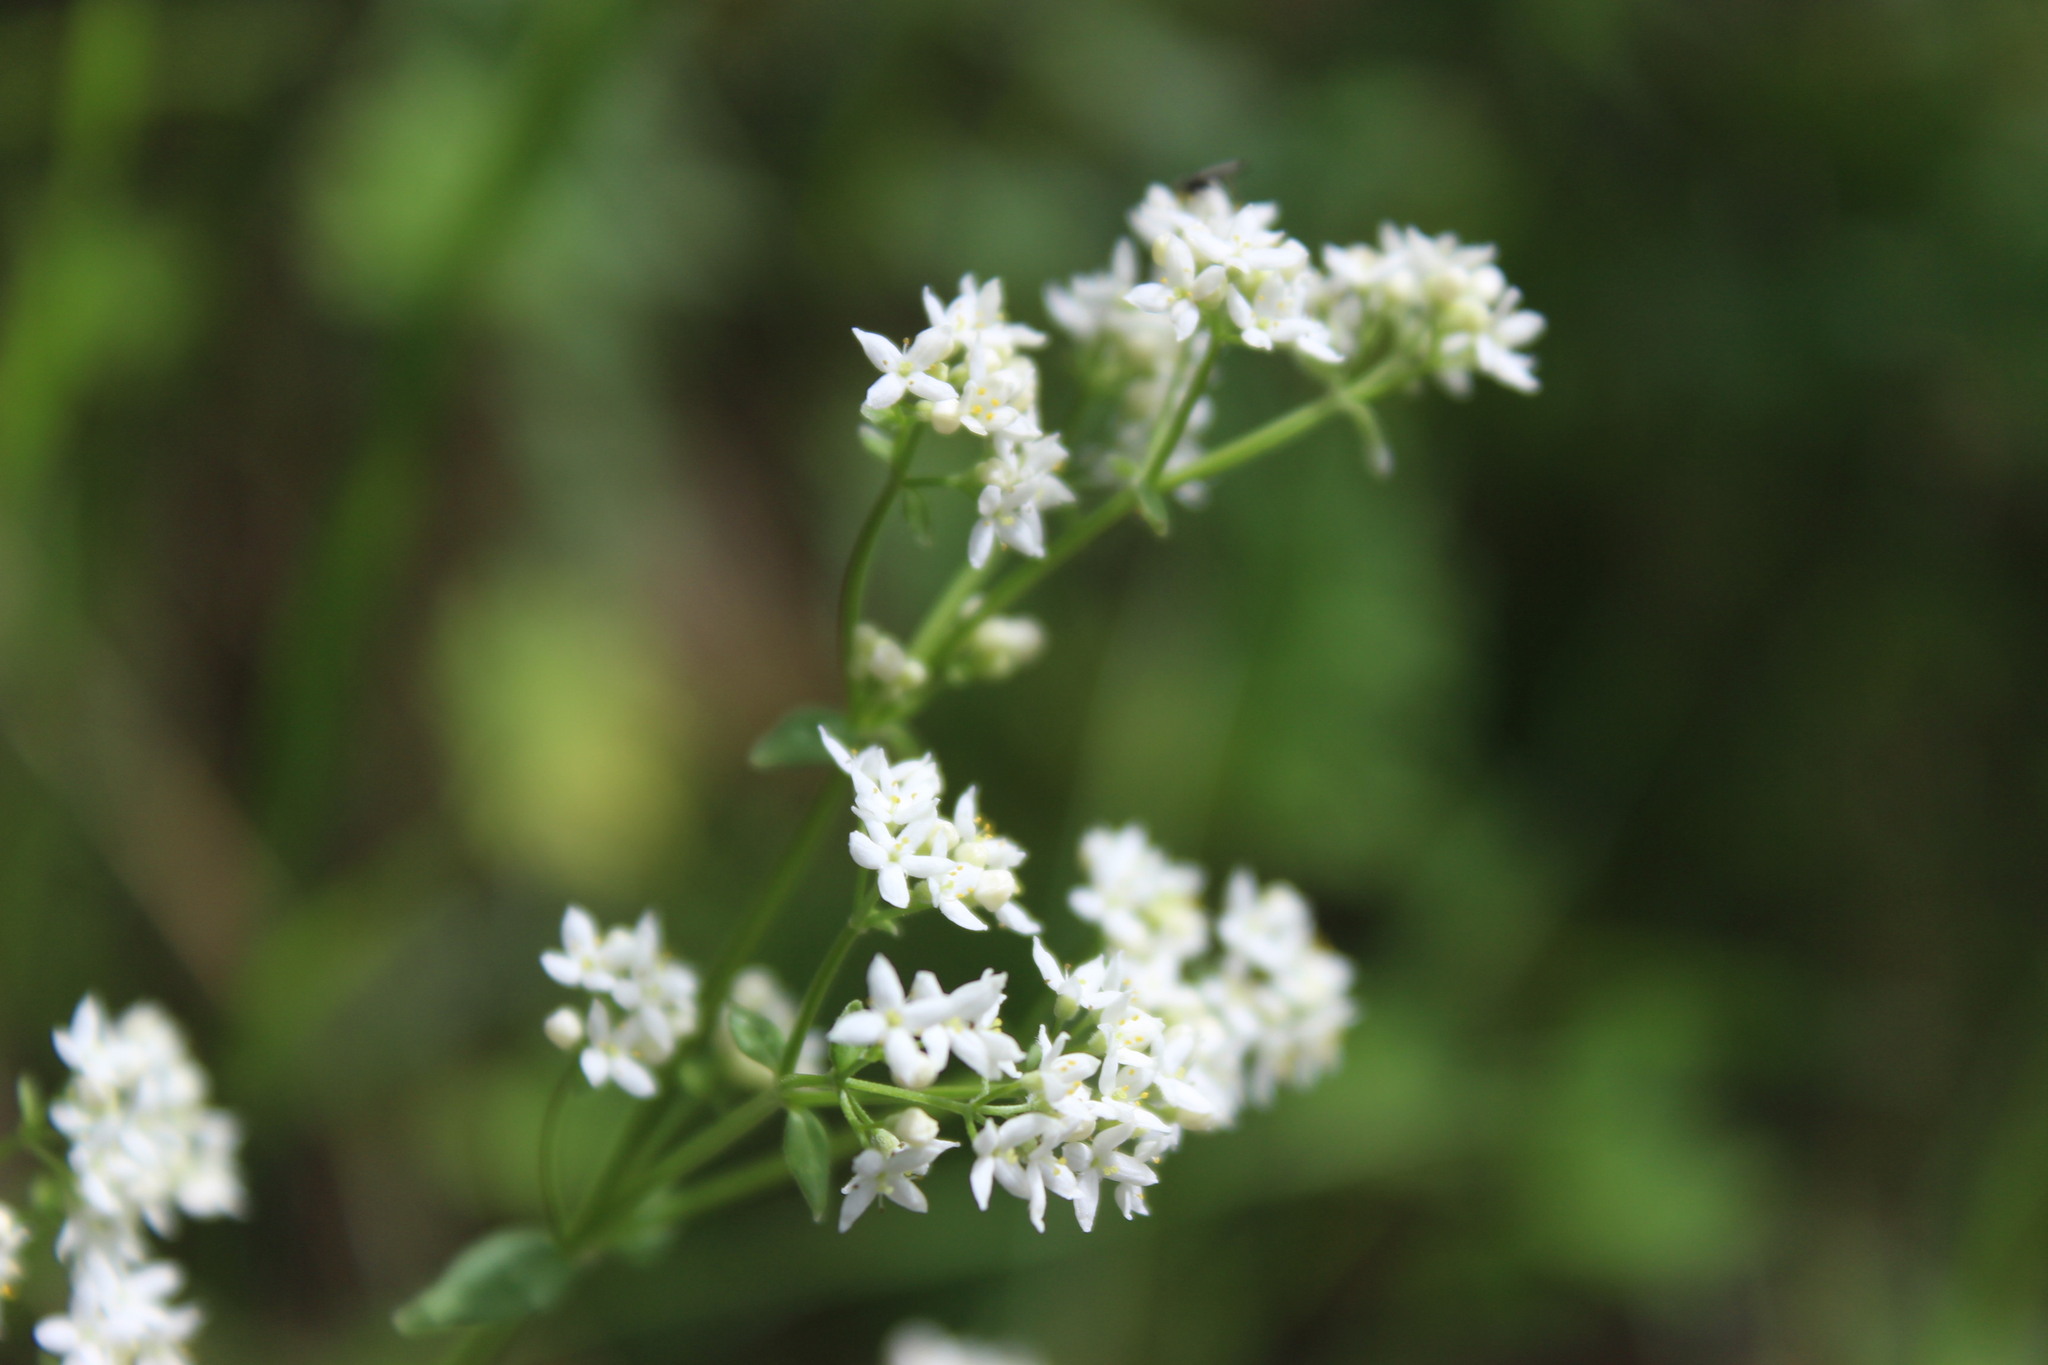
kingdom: Plantae
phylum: Tracheophyta
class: Magnoliopsida
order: Gentianales
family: Rubiaceae
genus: Galium
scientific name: Galium boreale
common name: Northern bedstraw
